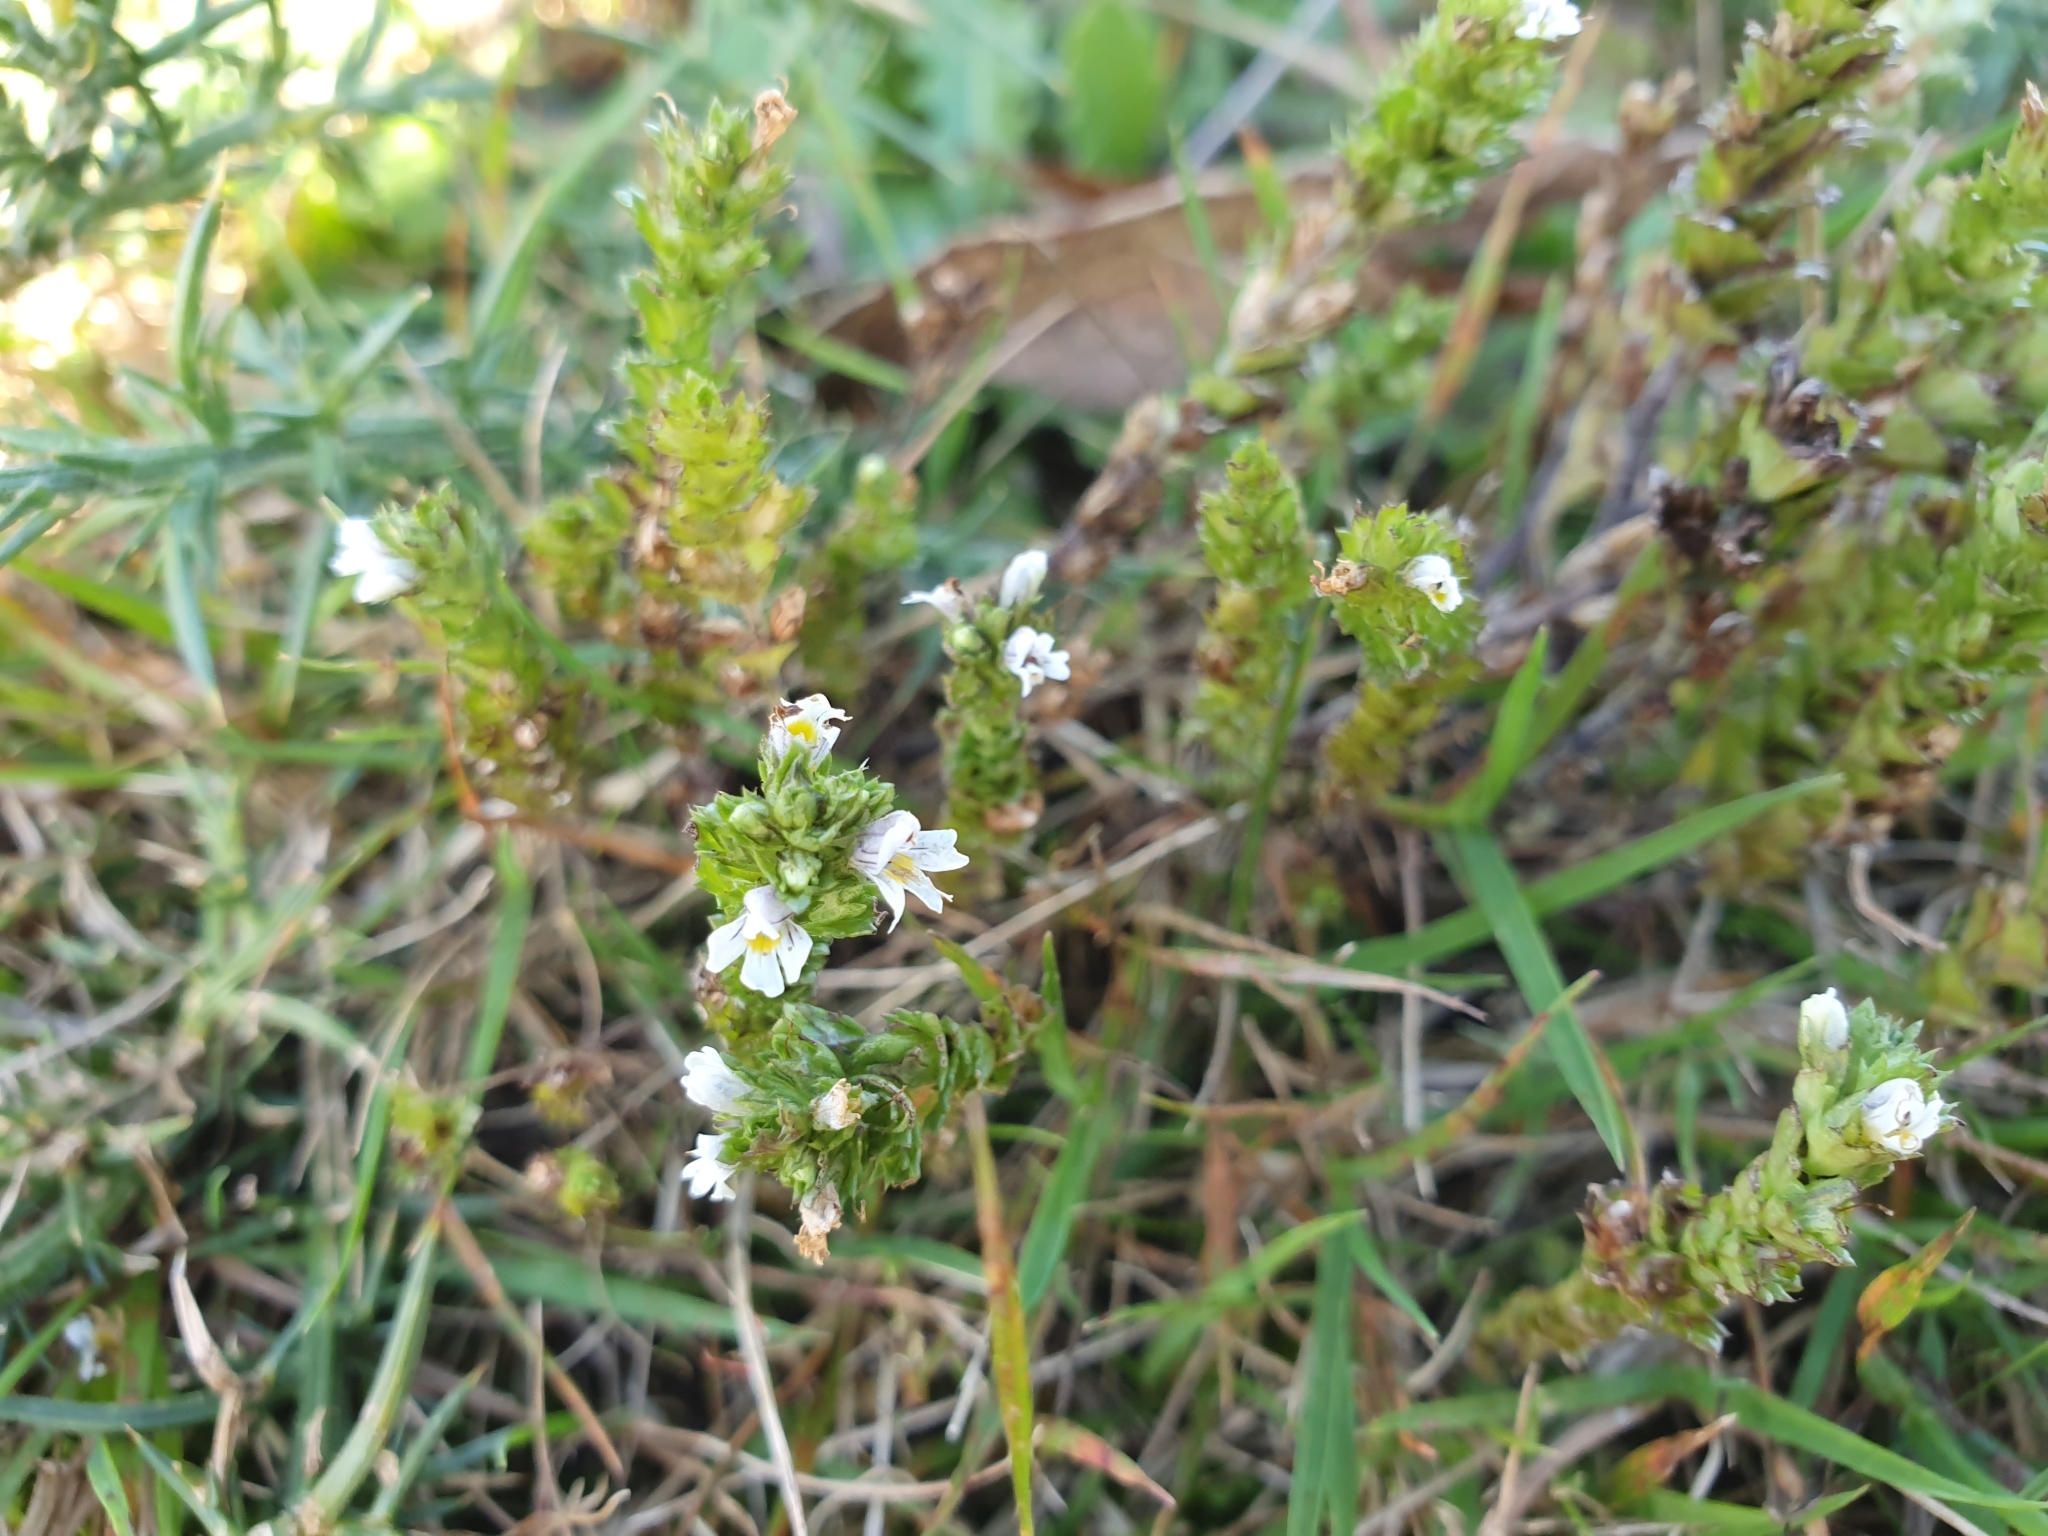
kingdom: Plantae
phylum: Tracheophyta
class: Magnoliopsida
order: Lamiales
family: Orobanchaceae
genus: Euphrasia
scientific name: Euphrasia nemorosa
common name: Common eyebright
